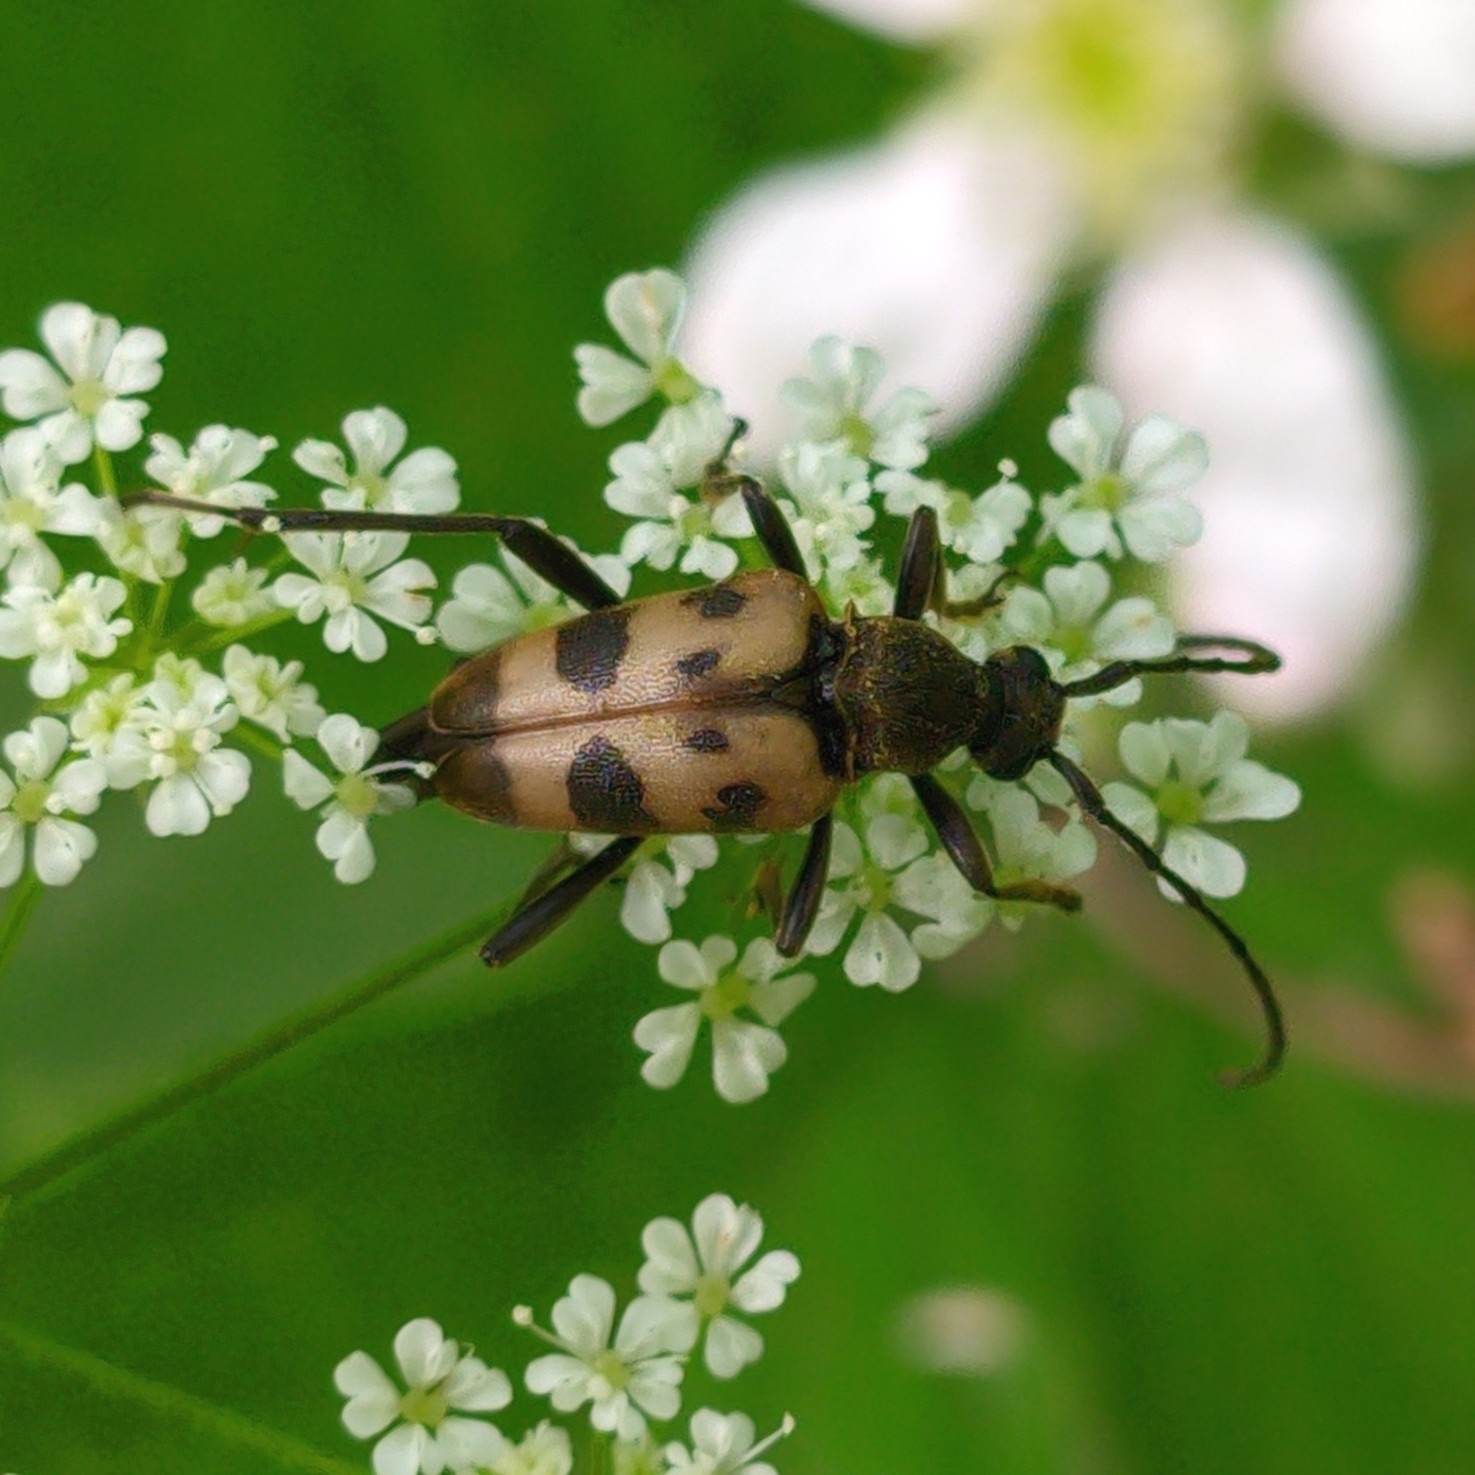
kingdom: Animalia
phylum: Arthropoda
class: Insecta
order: Coleoptera
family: Cerambycidae
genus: Pachytodes
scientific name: Pachytodes cerambyciformis
